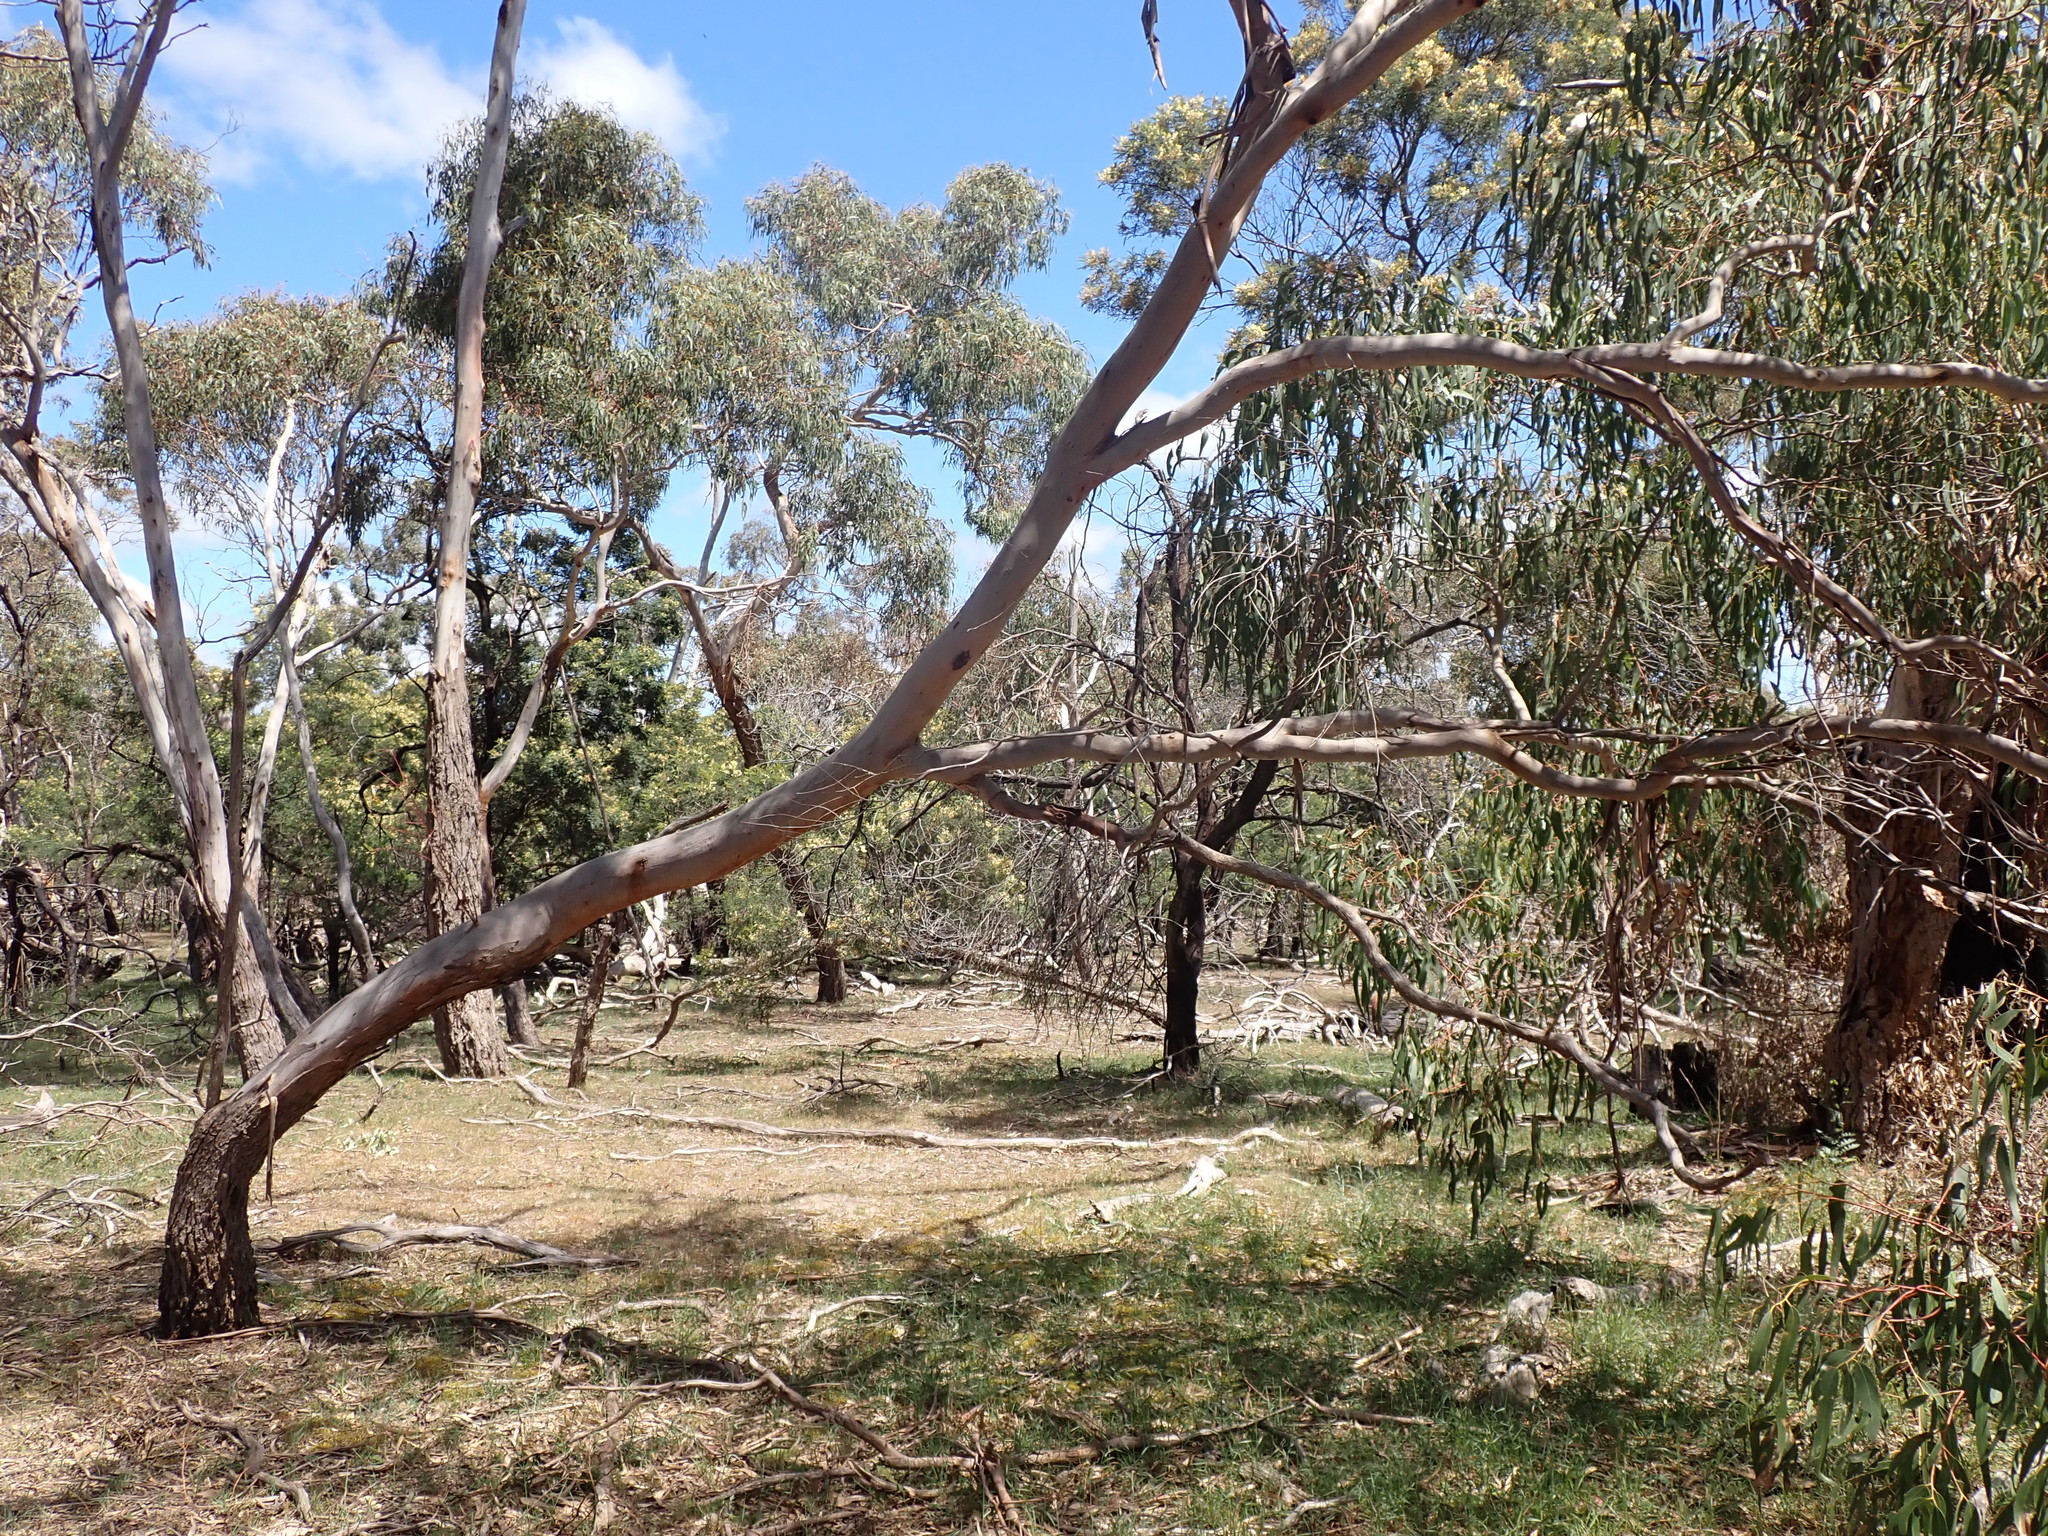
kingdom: Plantae
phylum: Tracheophyta
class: Magnoliopsida
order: Myrtales
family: Myrtaceae
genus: Eucalyptus
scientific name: Eucalyptus viminalis
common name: Manna gum
